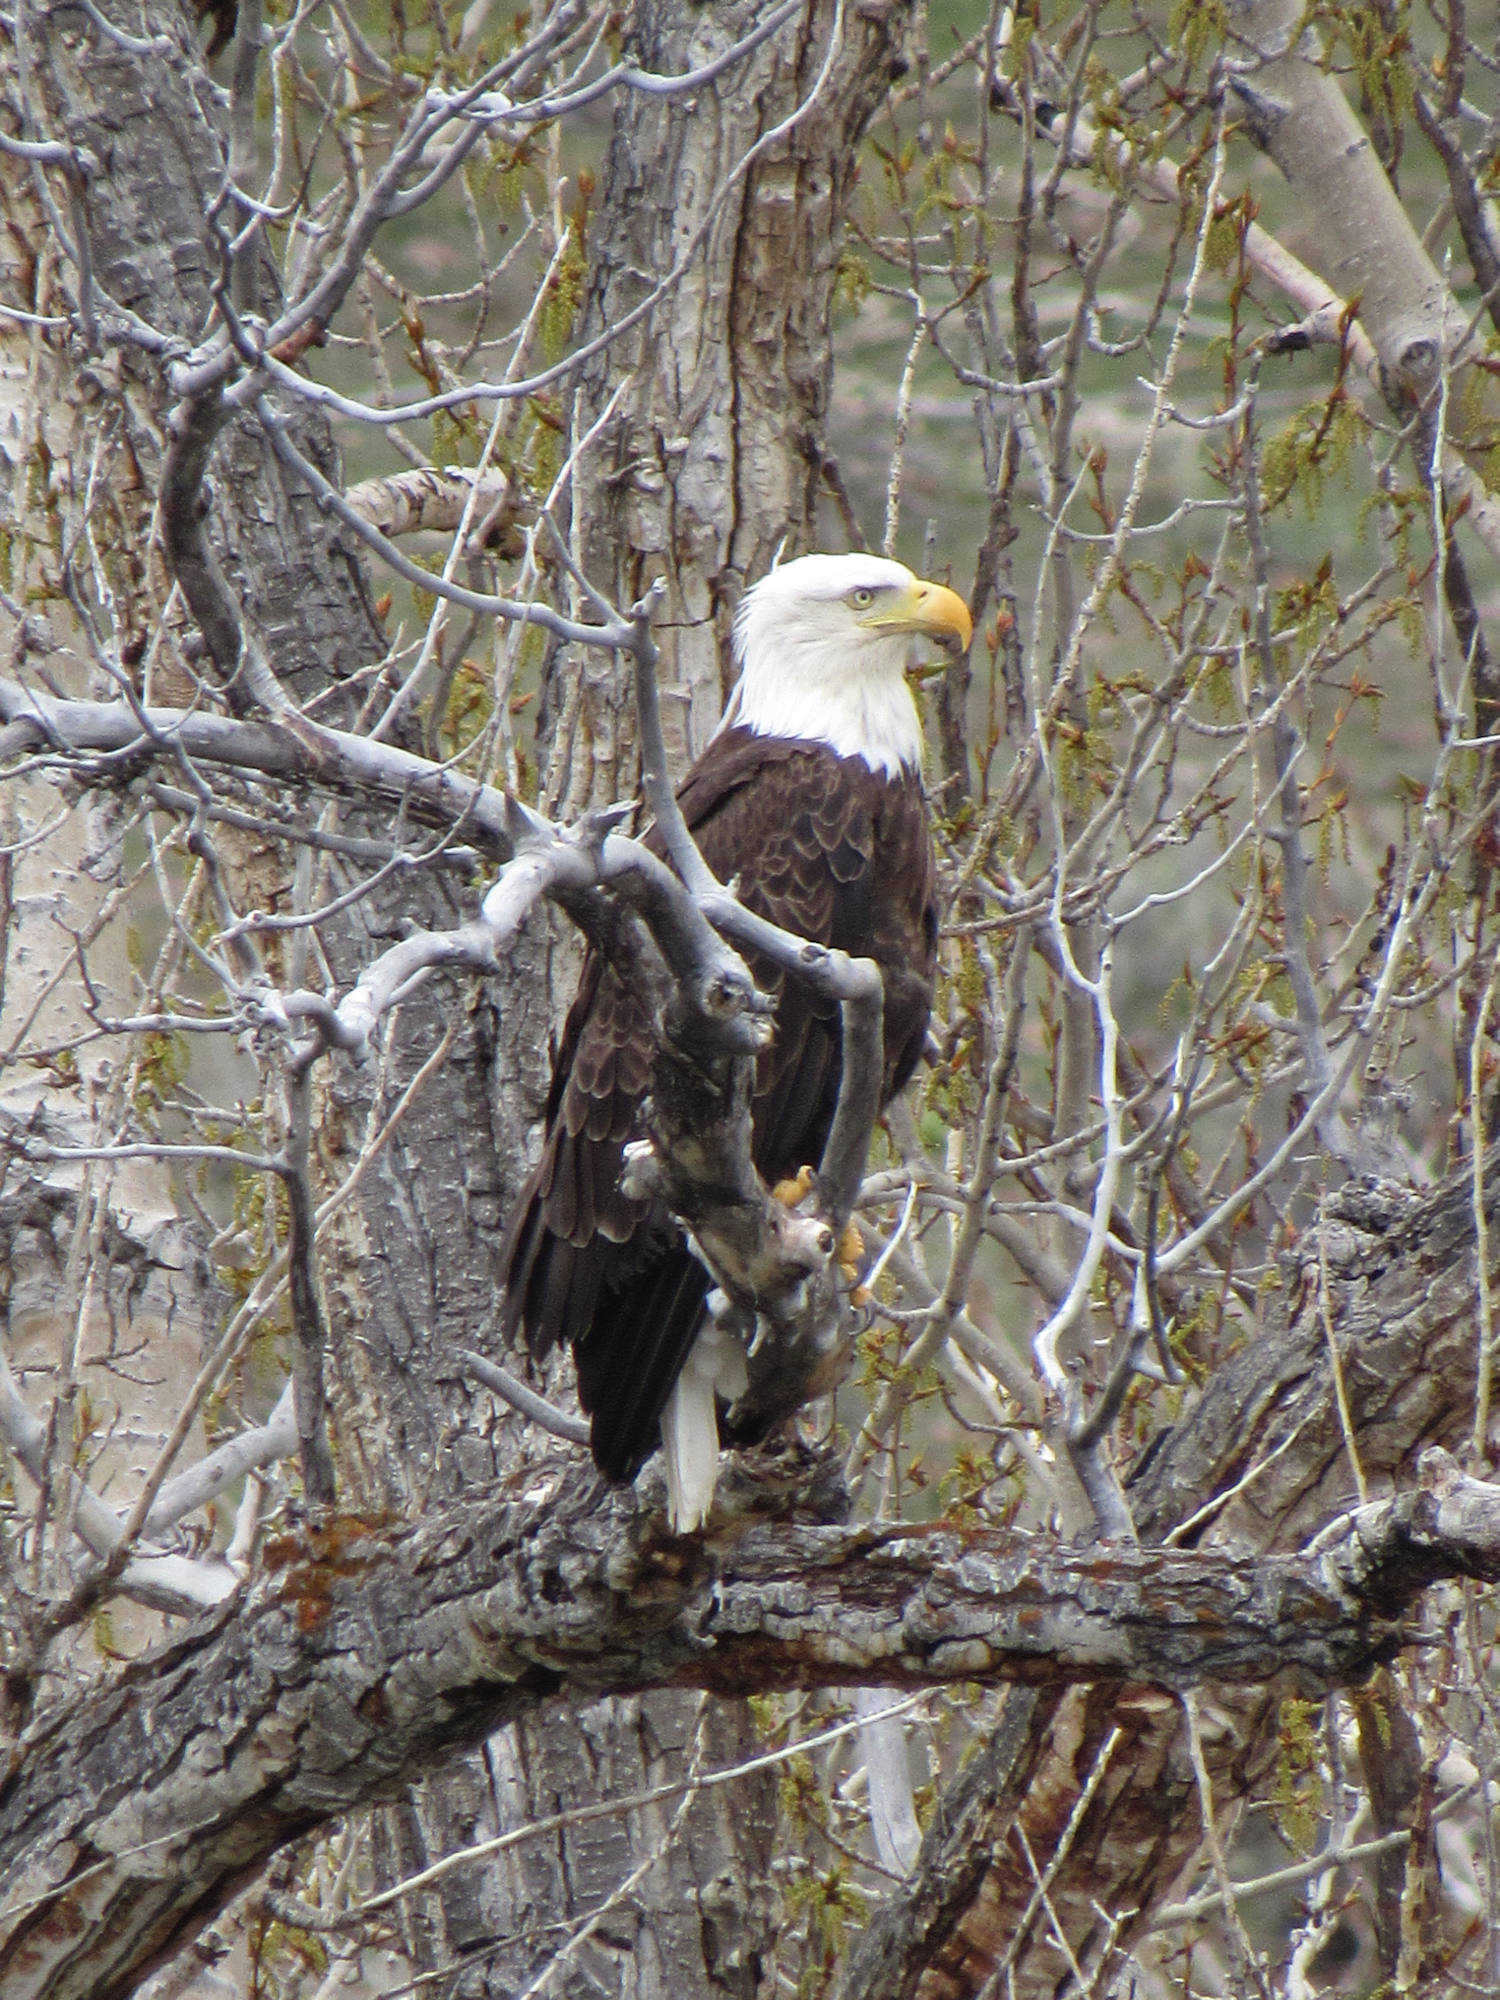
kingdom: Animalia
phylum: Chordata
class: Aves
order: Accipitriformes
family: Accipitridae
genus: Haliaeetus
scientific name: Haliaeetus leucocephalus
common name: Bald eagle
